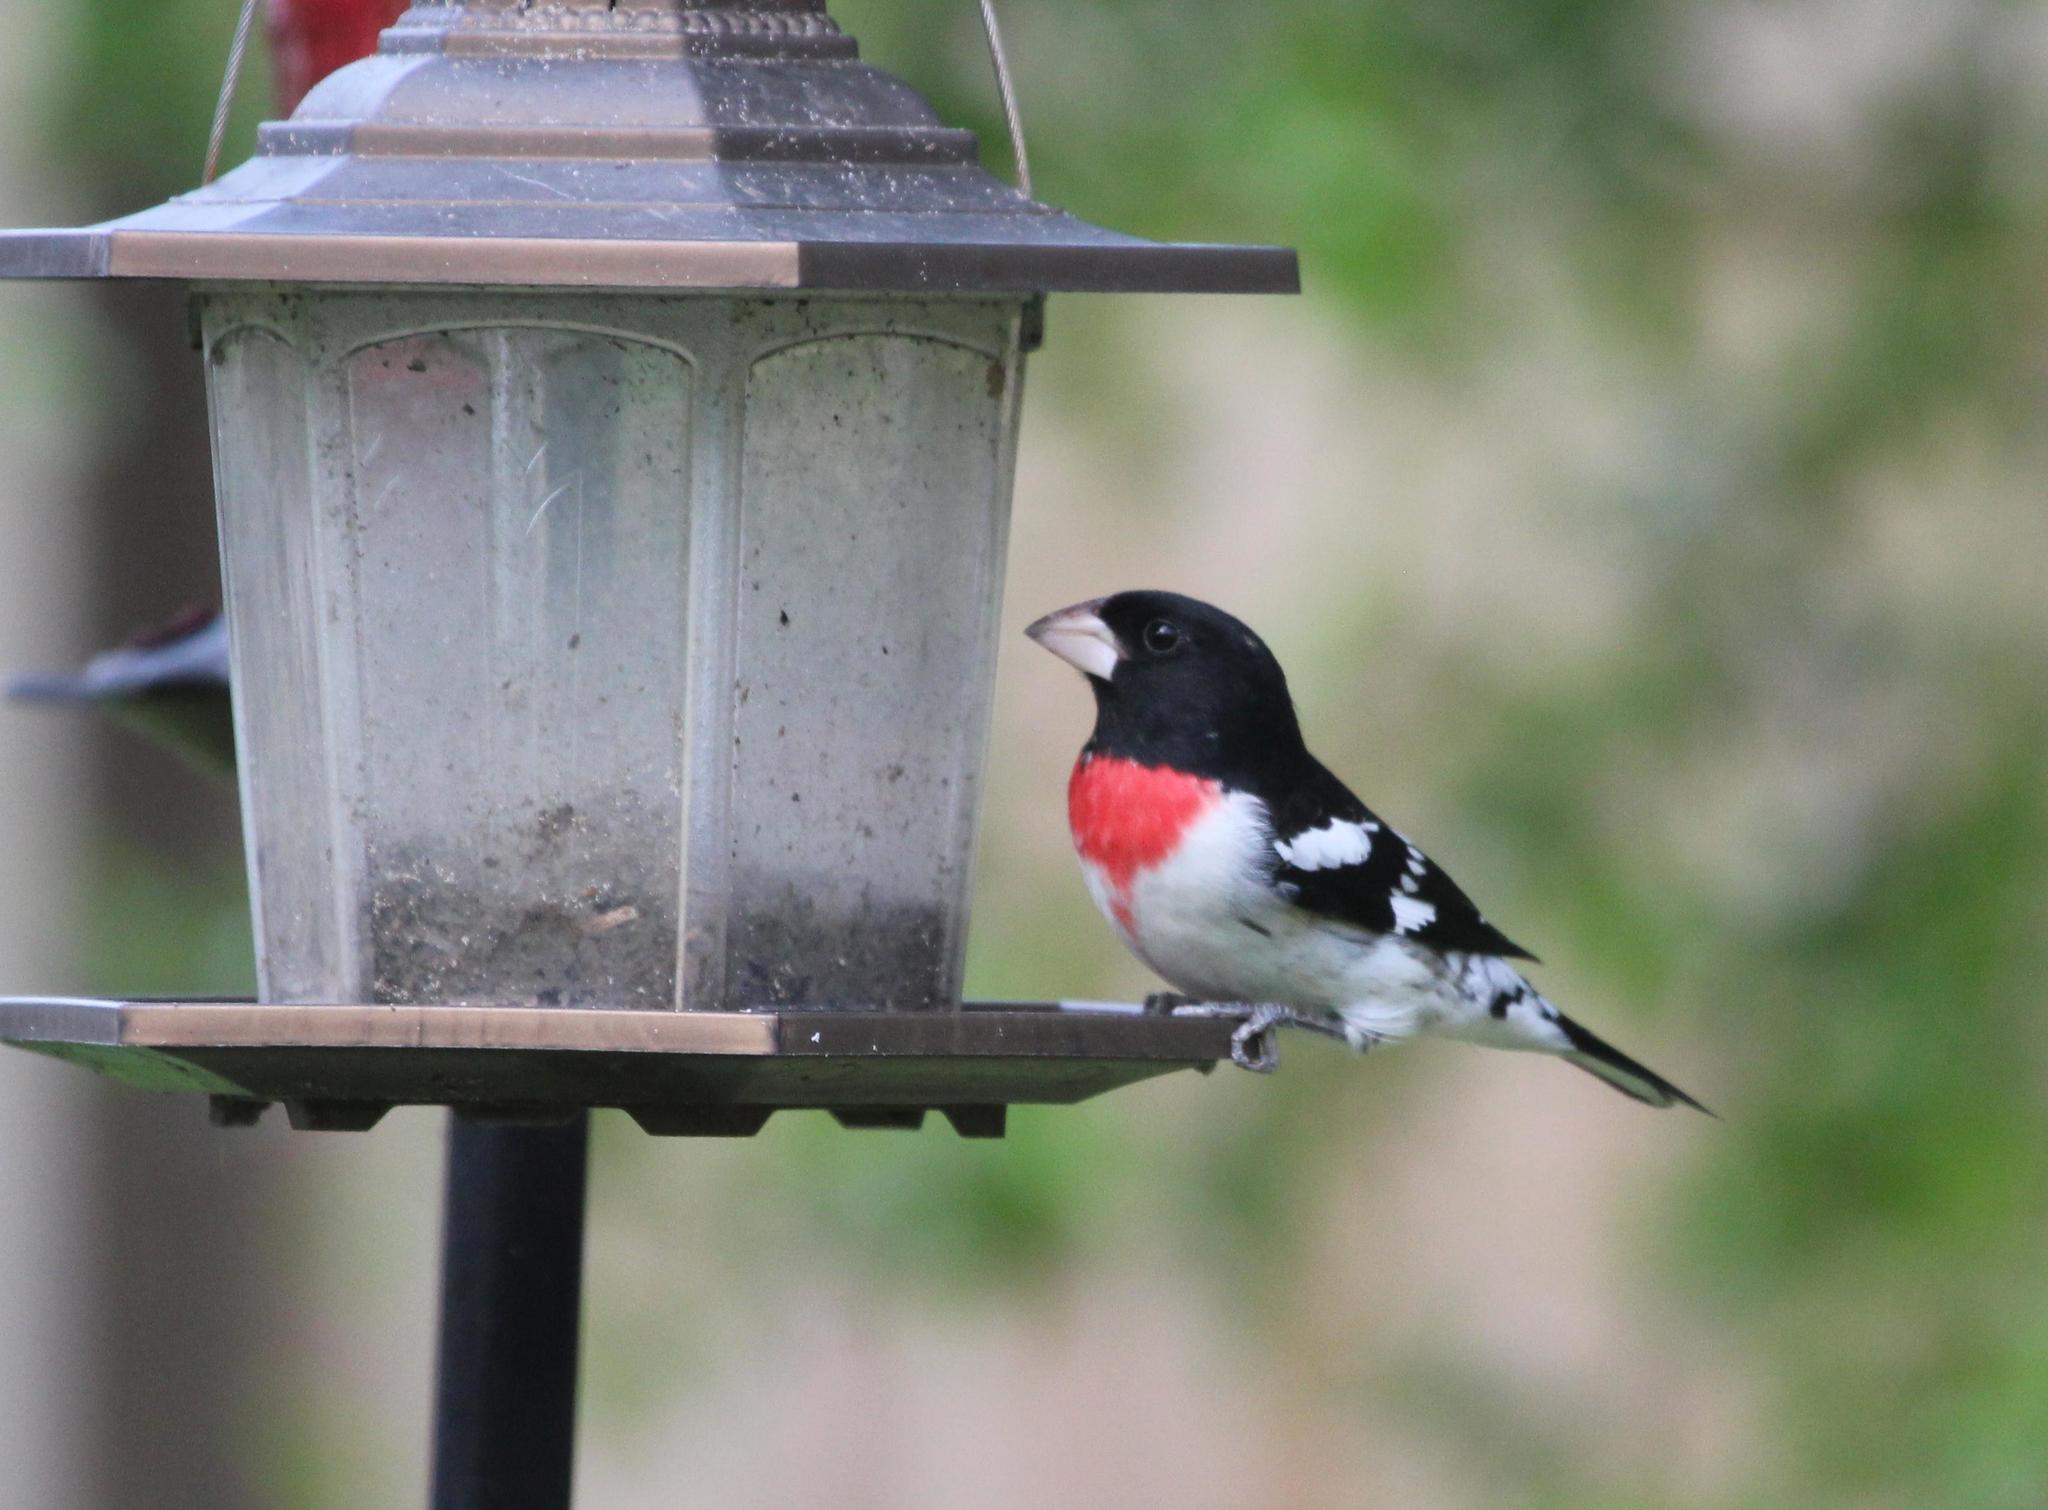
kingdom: Animalia
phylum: Chordata
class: Aves
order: Passeriformes
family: Cardinalidae
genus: Pheucticus
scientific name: Pheucticus ludovicianus
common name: Rose-breasted grosbeak
